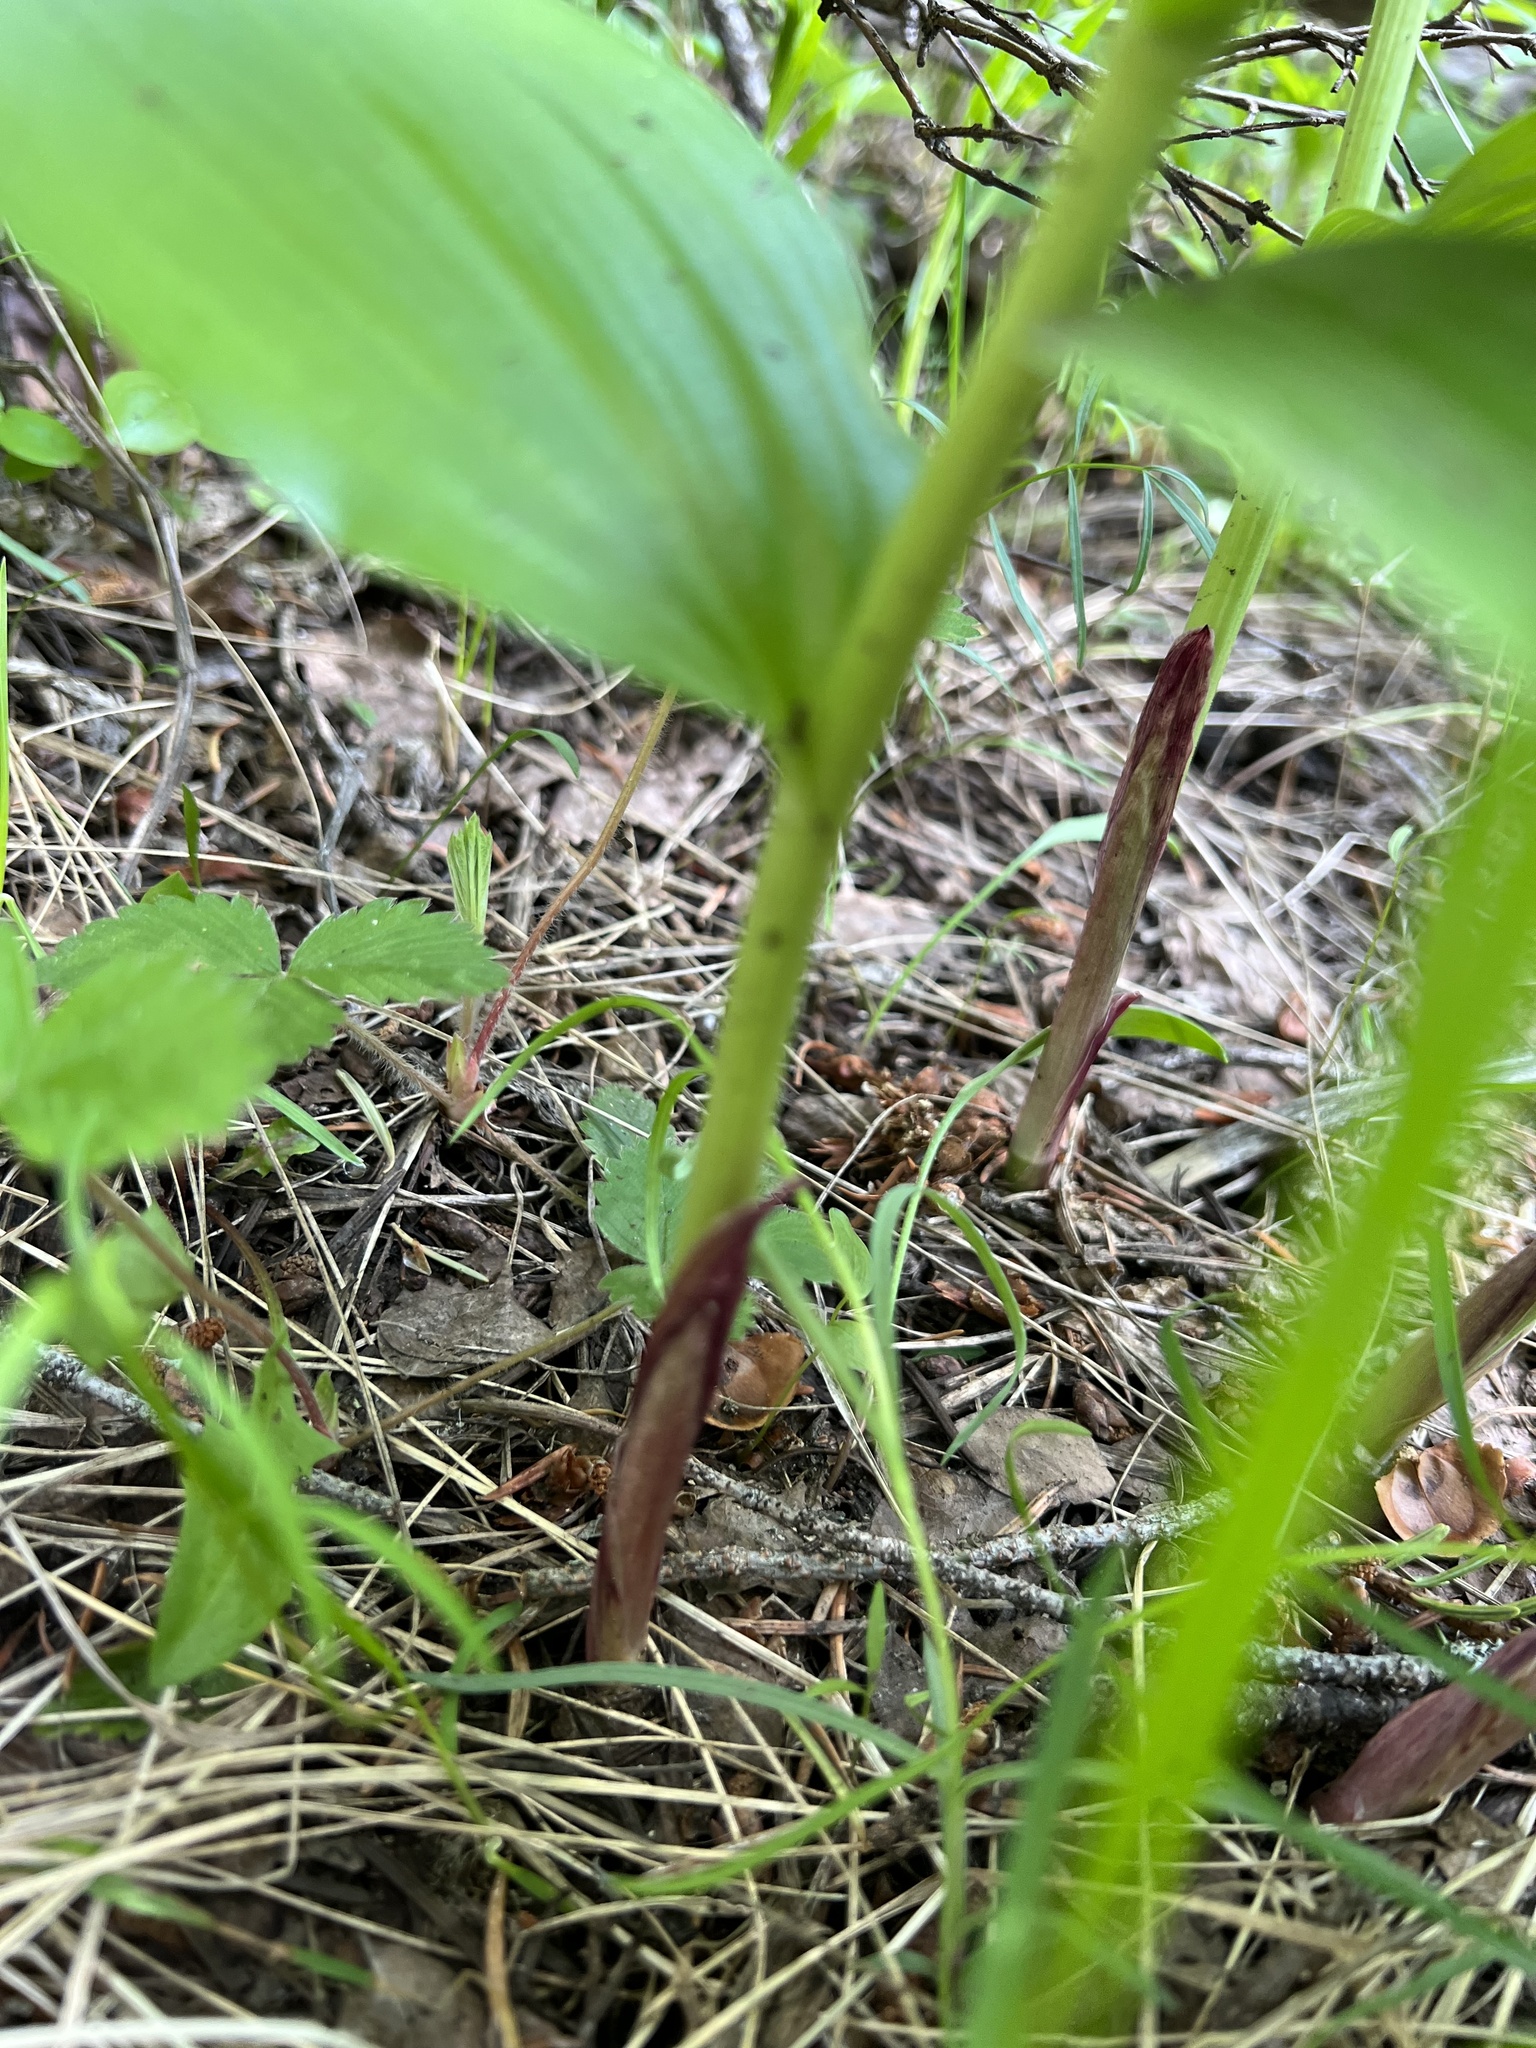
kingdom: Plantae
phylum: Tracheophyta
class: Liliopsida
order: Asparagales
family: Asparagaceae
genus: Maianthemum
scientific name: Maianthemum racemosum
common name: False spikenard
